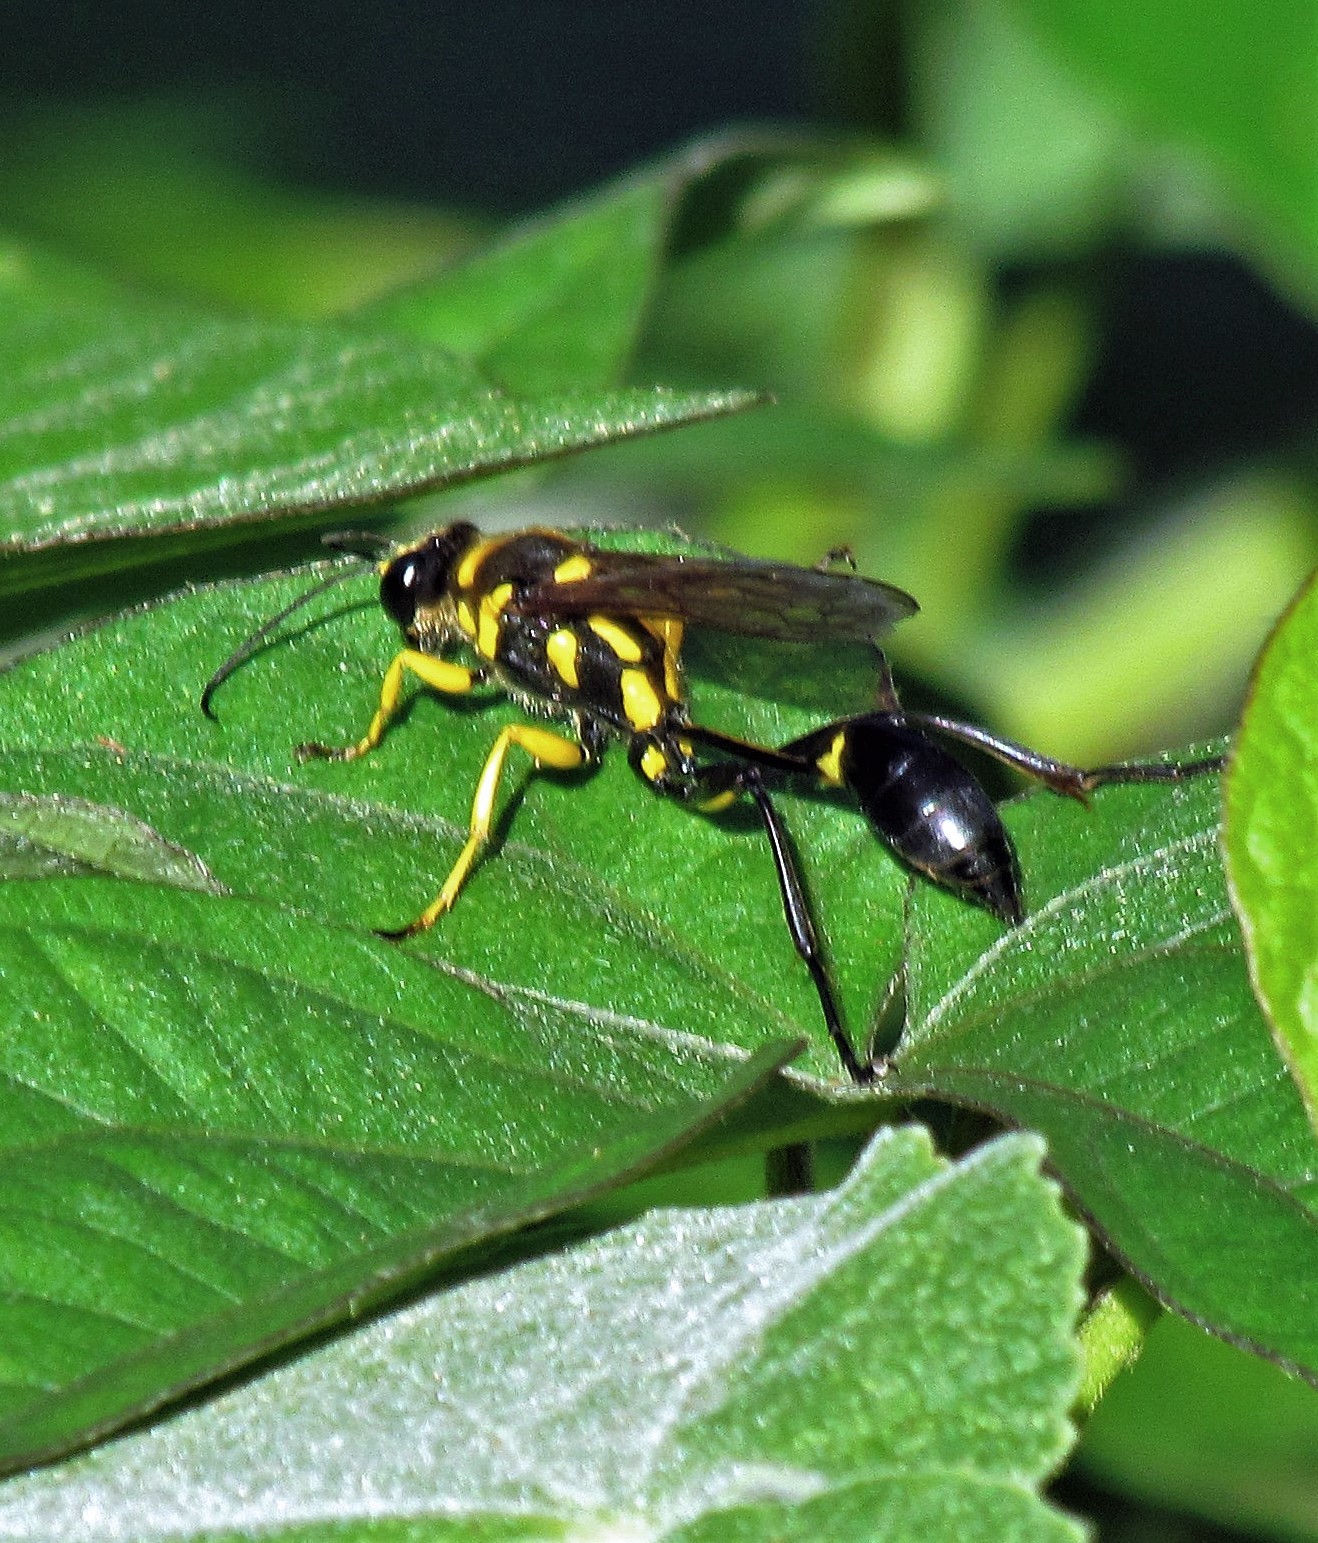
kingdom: Animalia
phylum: Arthropoda
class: Insecta
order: Hymenoptera
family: Sphecidae
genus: Sceliphron
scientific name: Sceliphron fistularium
